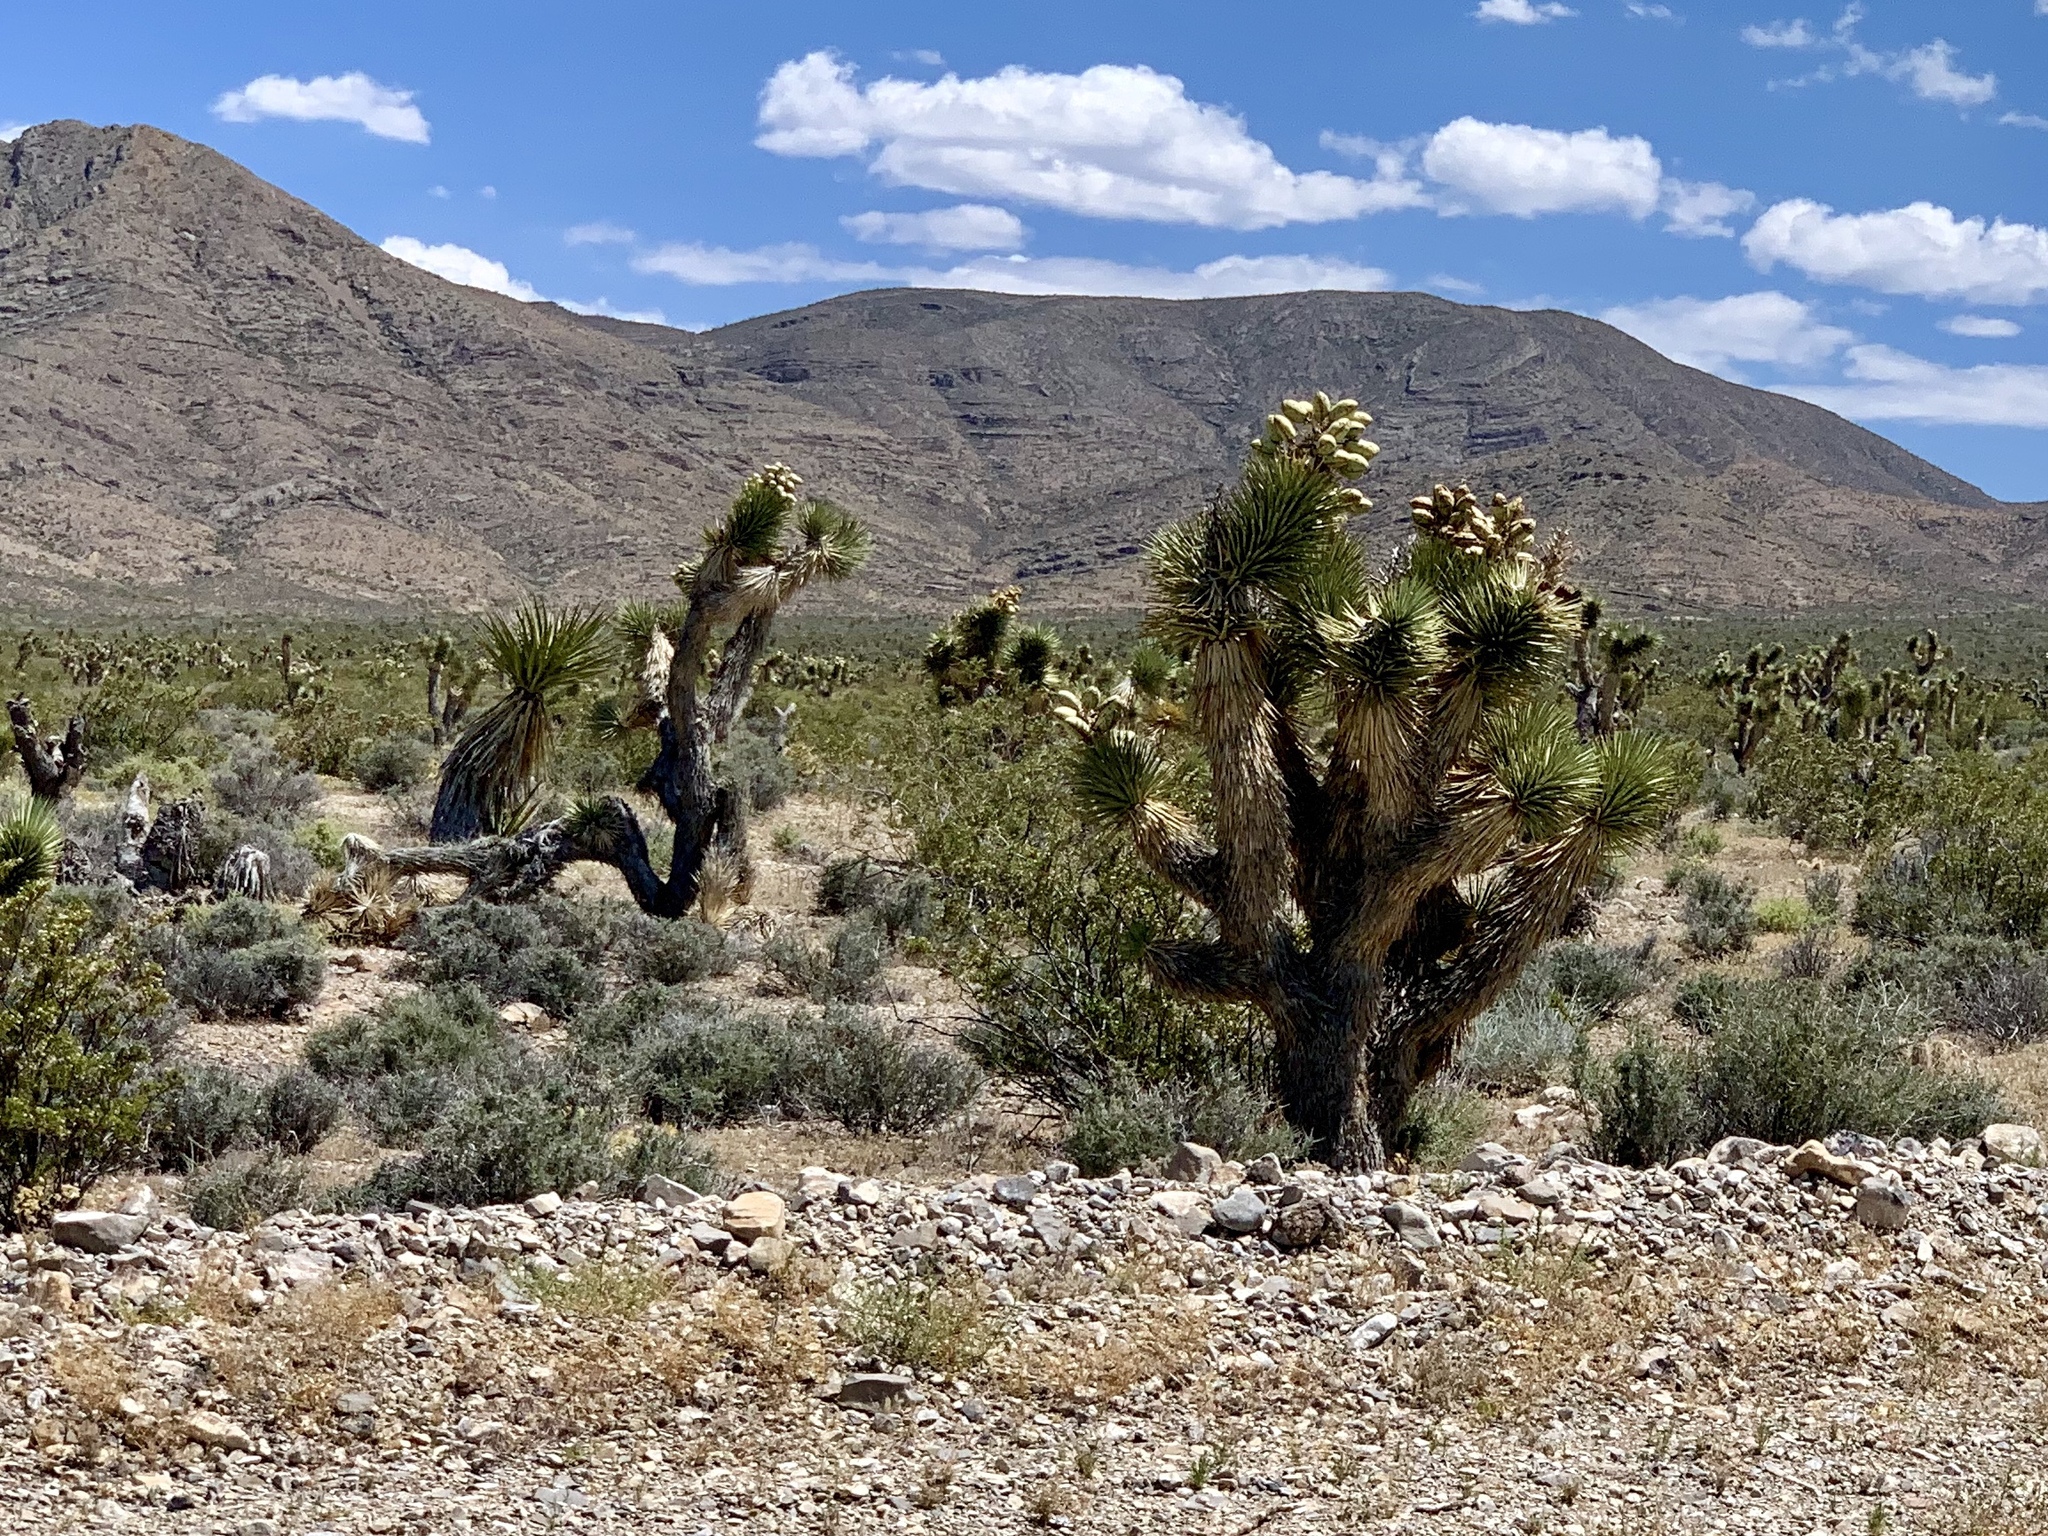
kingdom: Plantae
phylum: Tracheophyta
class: Liliopsida
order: Asparagales
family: Asparagaceae
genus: Yucca
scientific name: Yucca brevifolia
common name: Joshua tree
